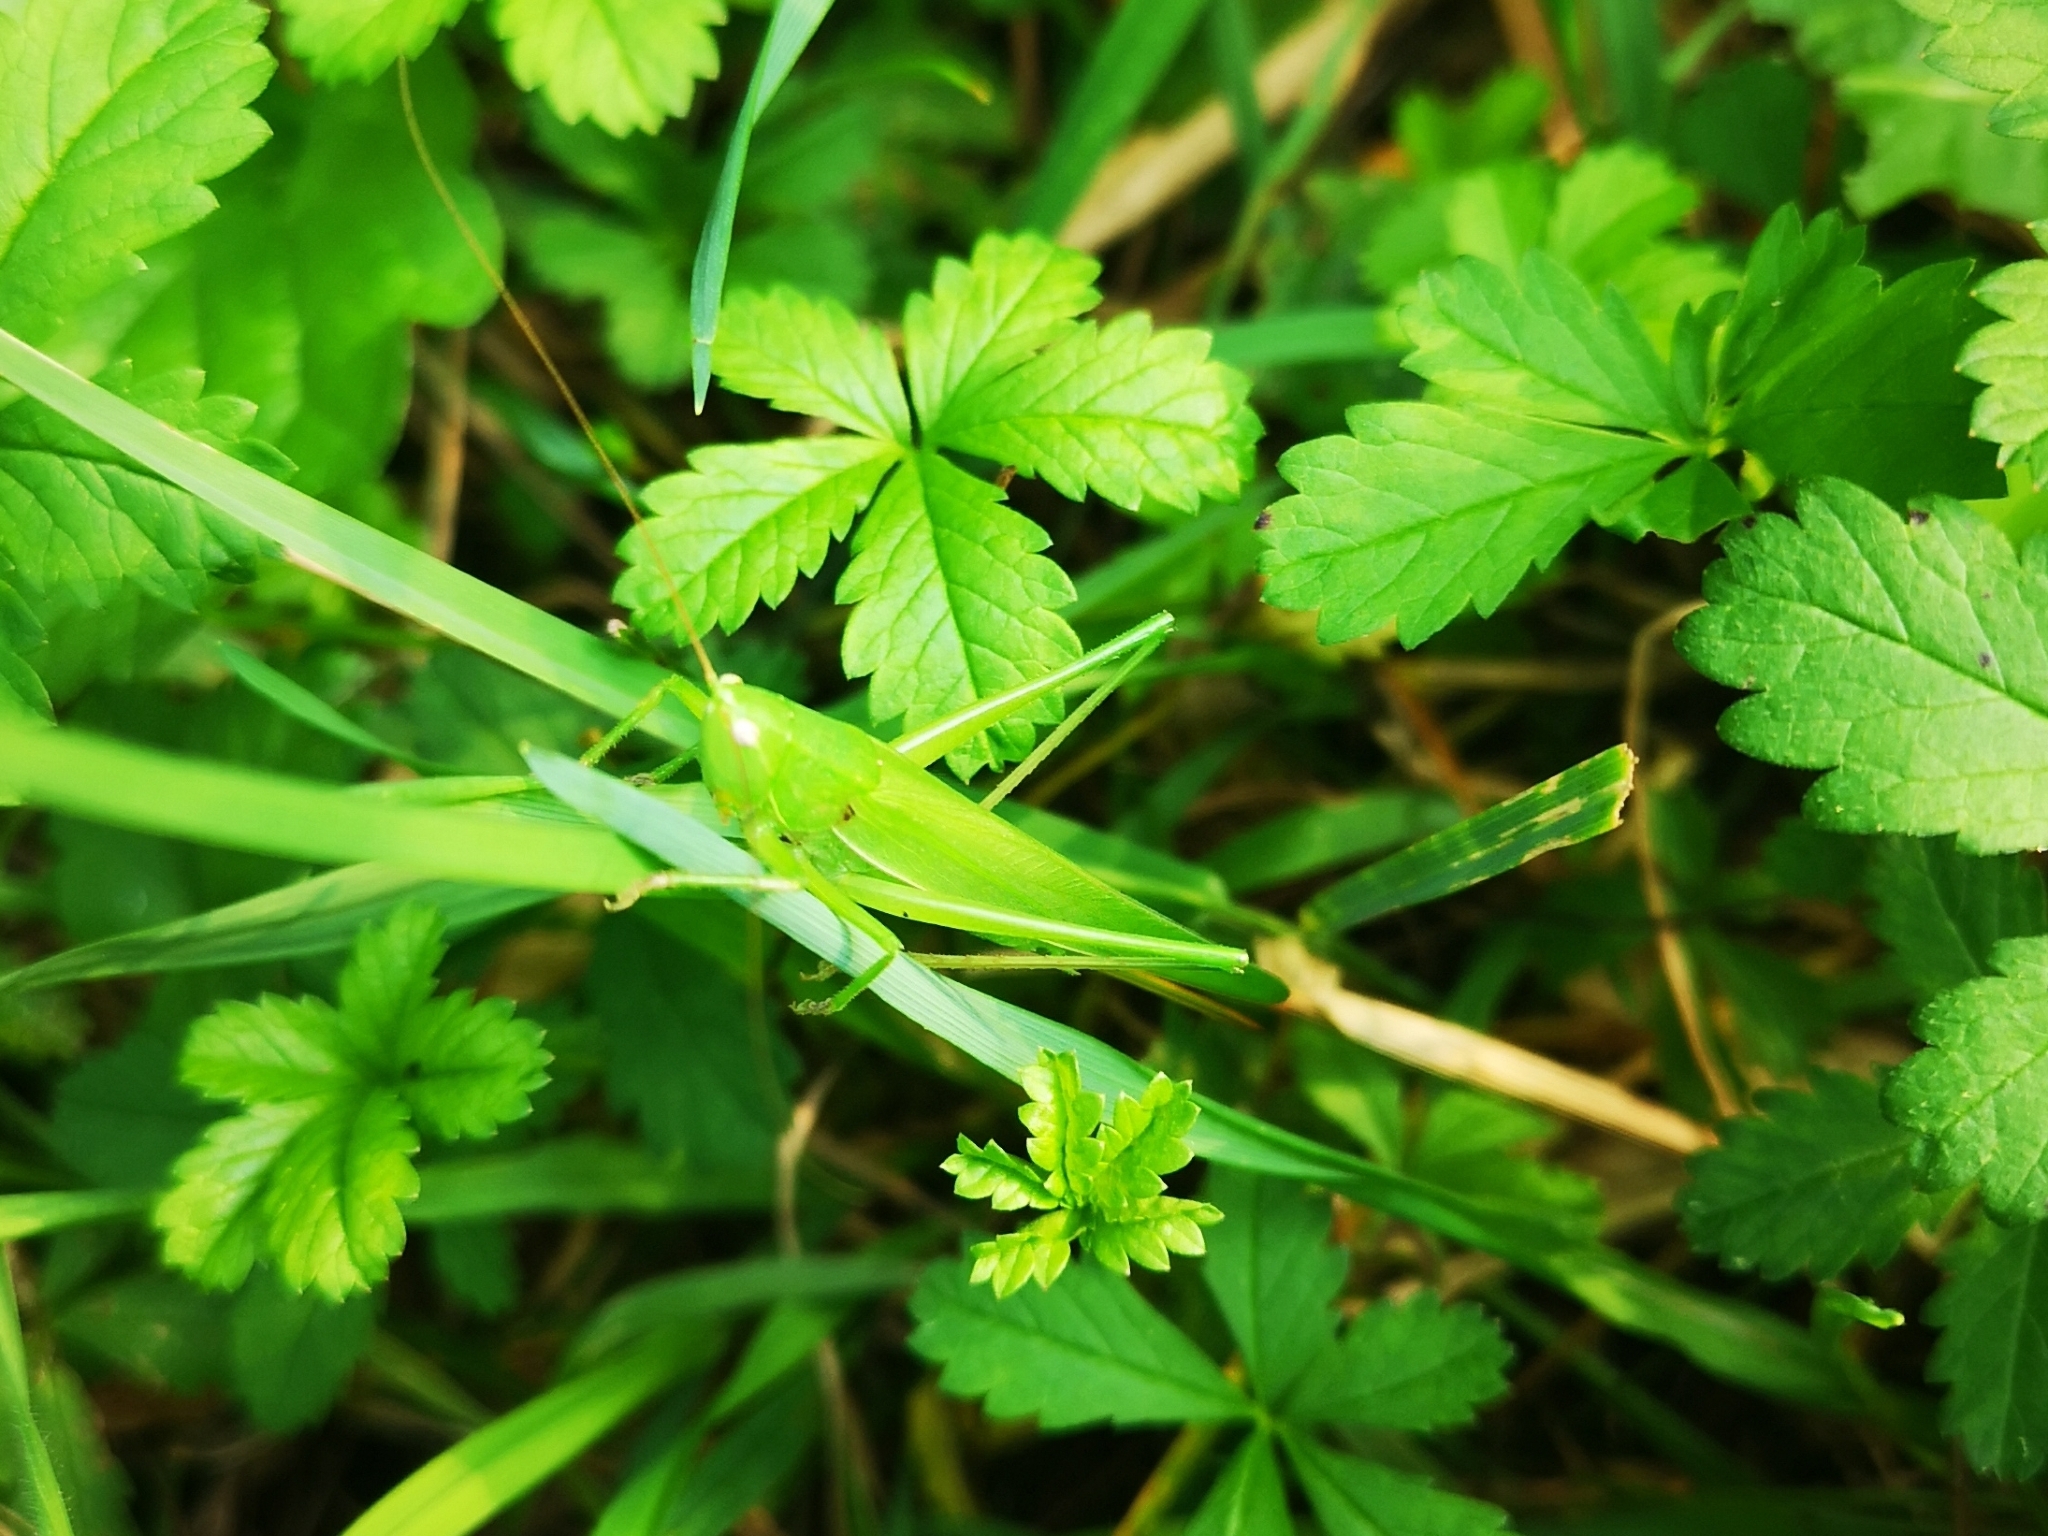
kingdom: Animalia
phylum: Arthropoda
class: Insecta
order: Orthoptera
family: Tettigoniidae
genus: Ruspolia
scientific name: Ruspolia nitidula
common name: Large conehead
